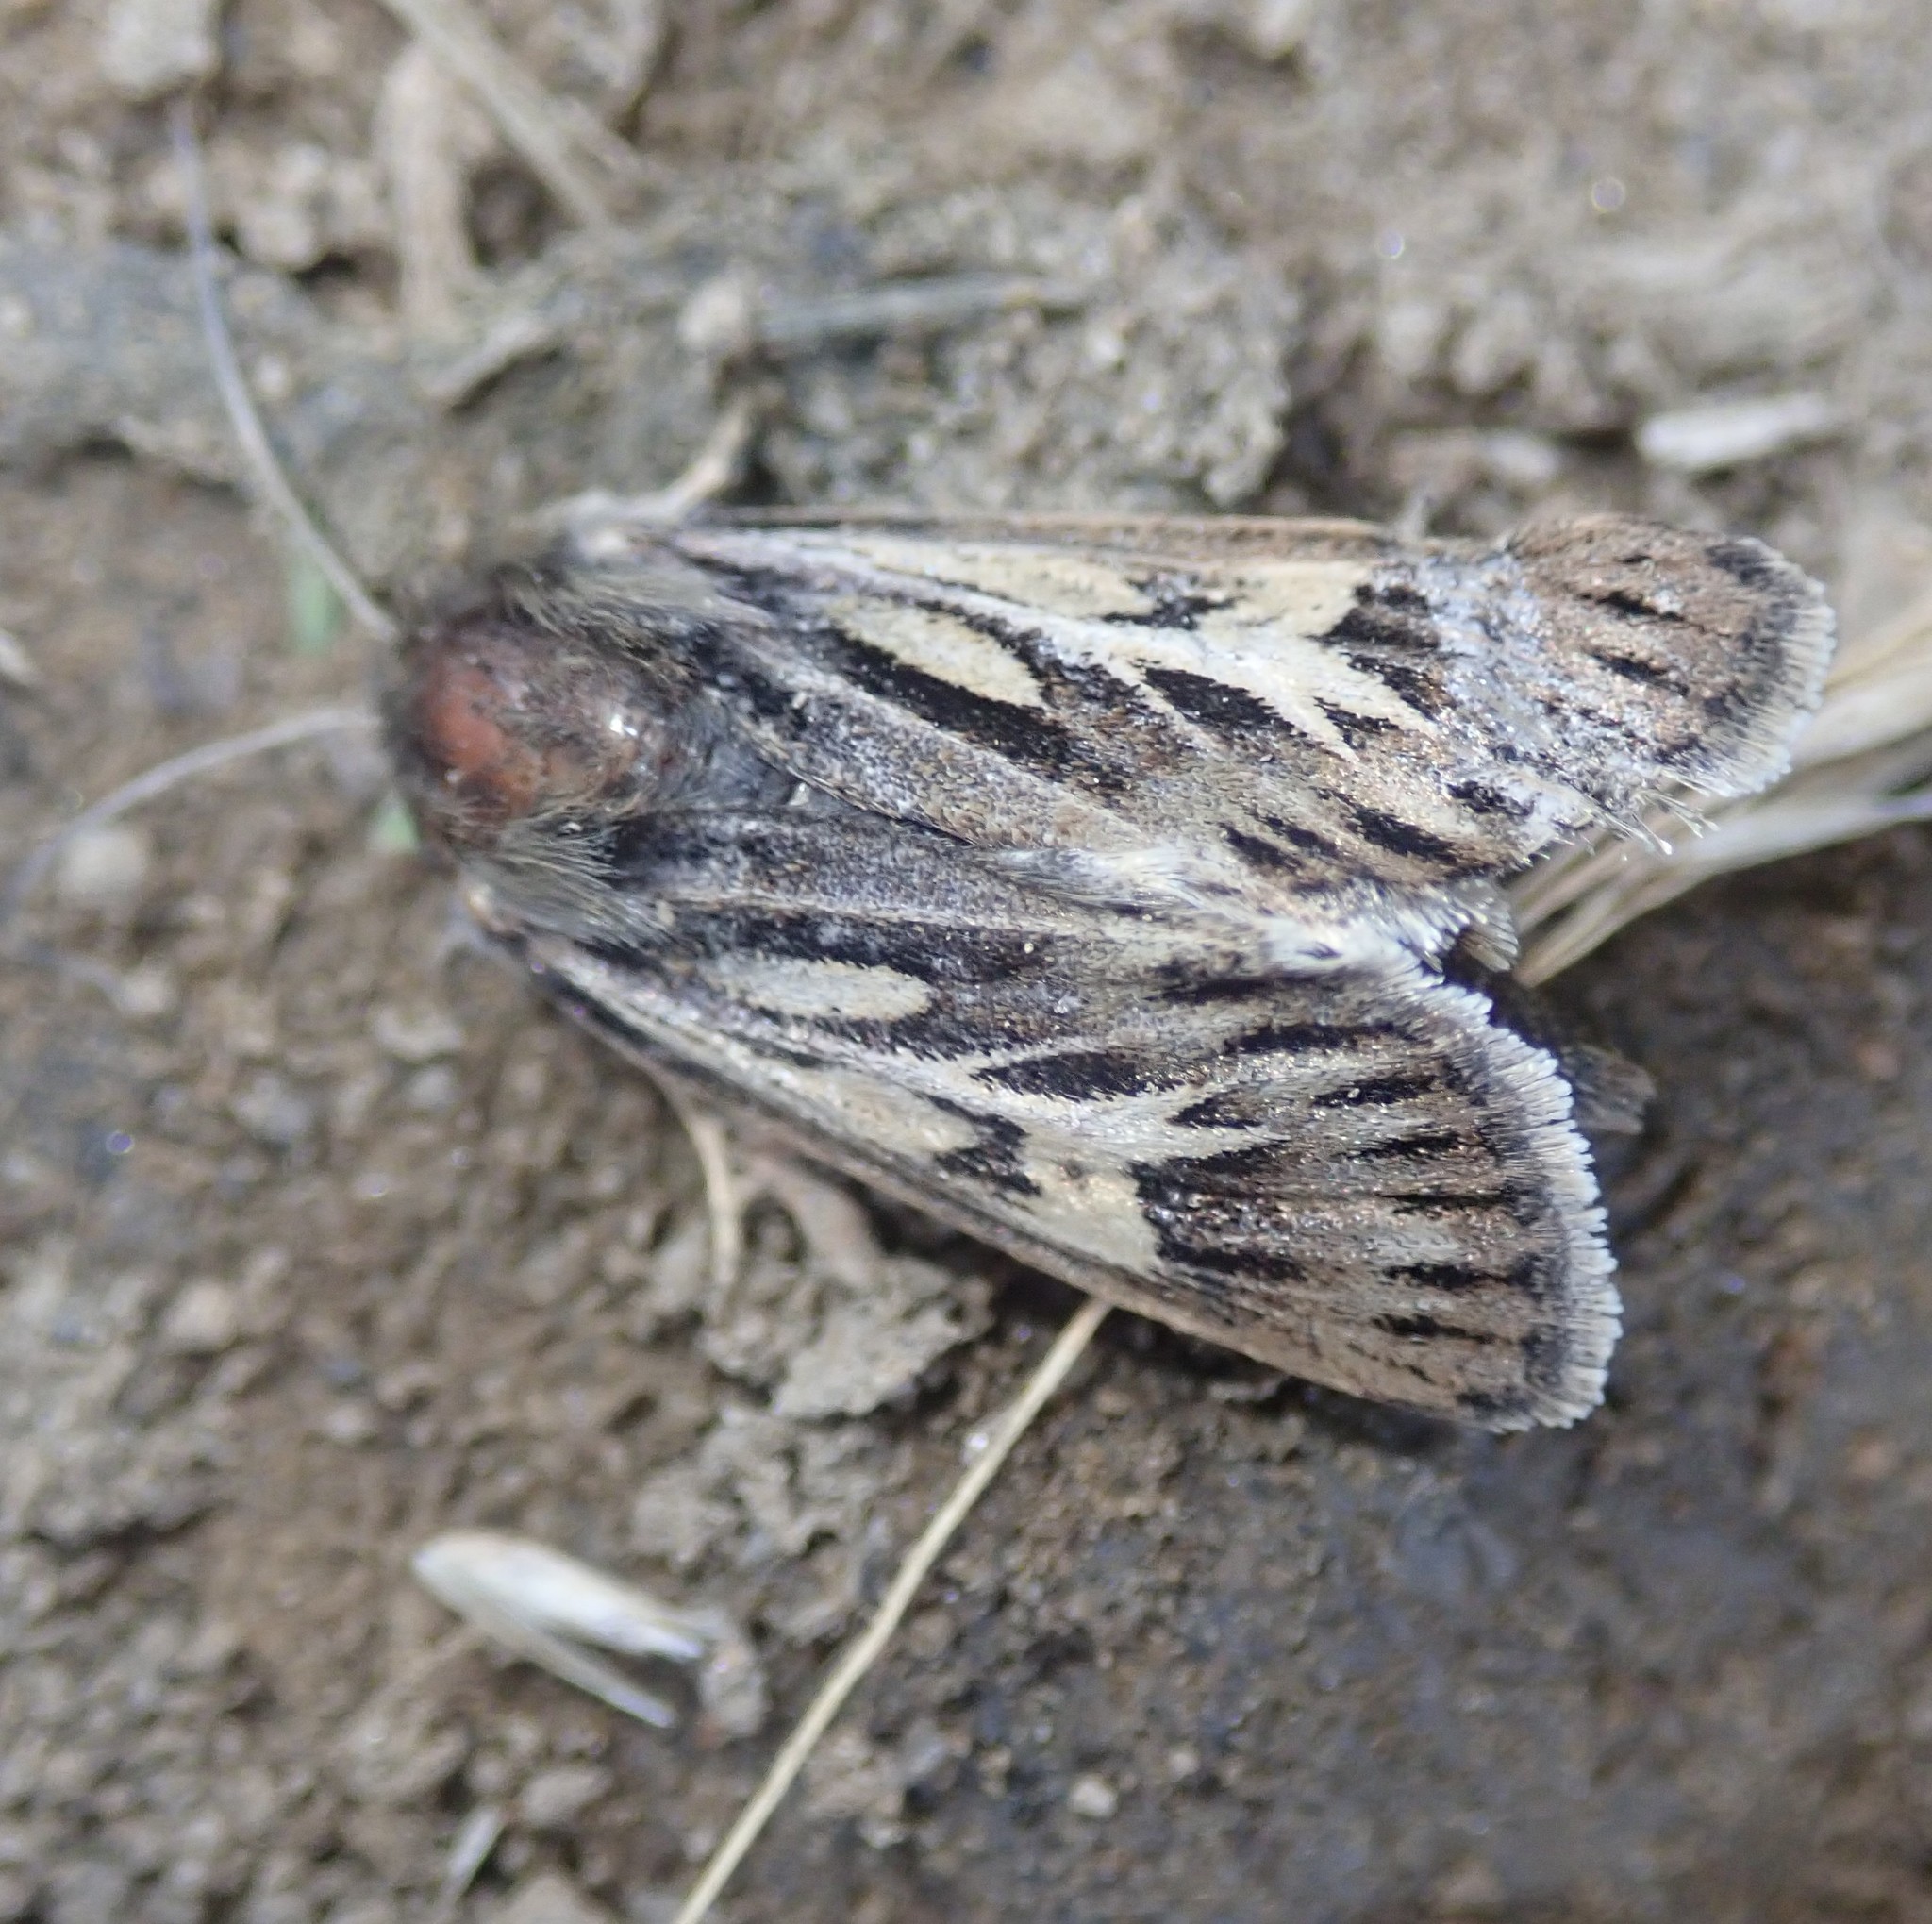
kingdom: Animalia
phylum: Arthropoda
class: Insecta
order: Lepidoptera
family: Noctuidae
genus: Cerapteryx
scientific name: Cerapteryx graminis
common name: Antler moth
